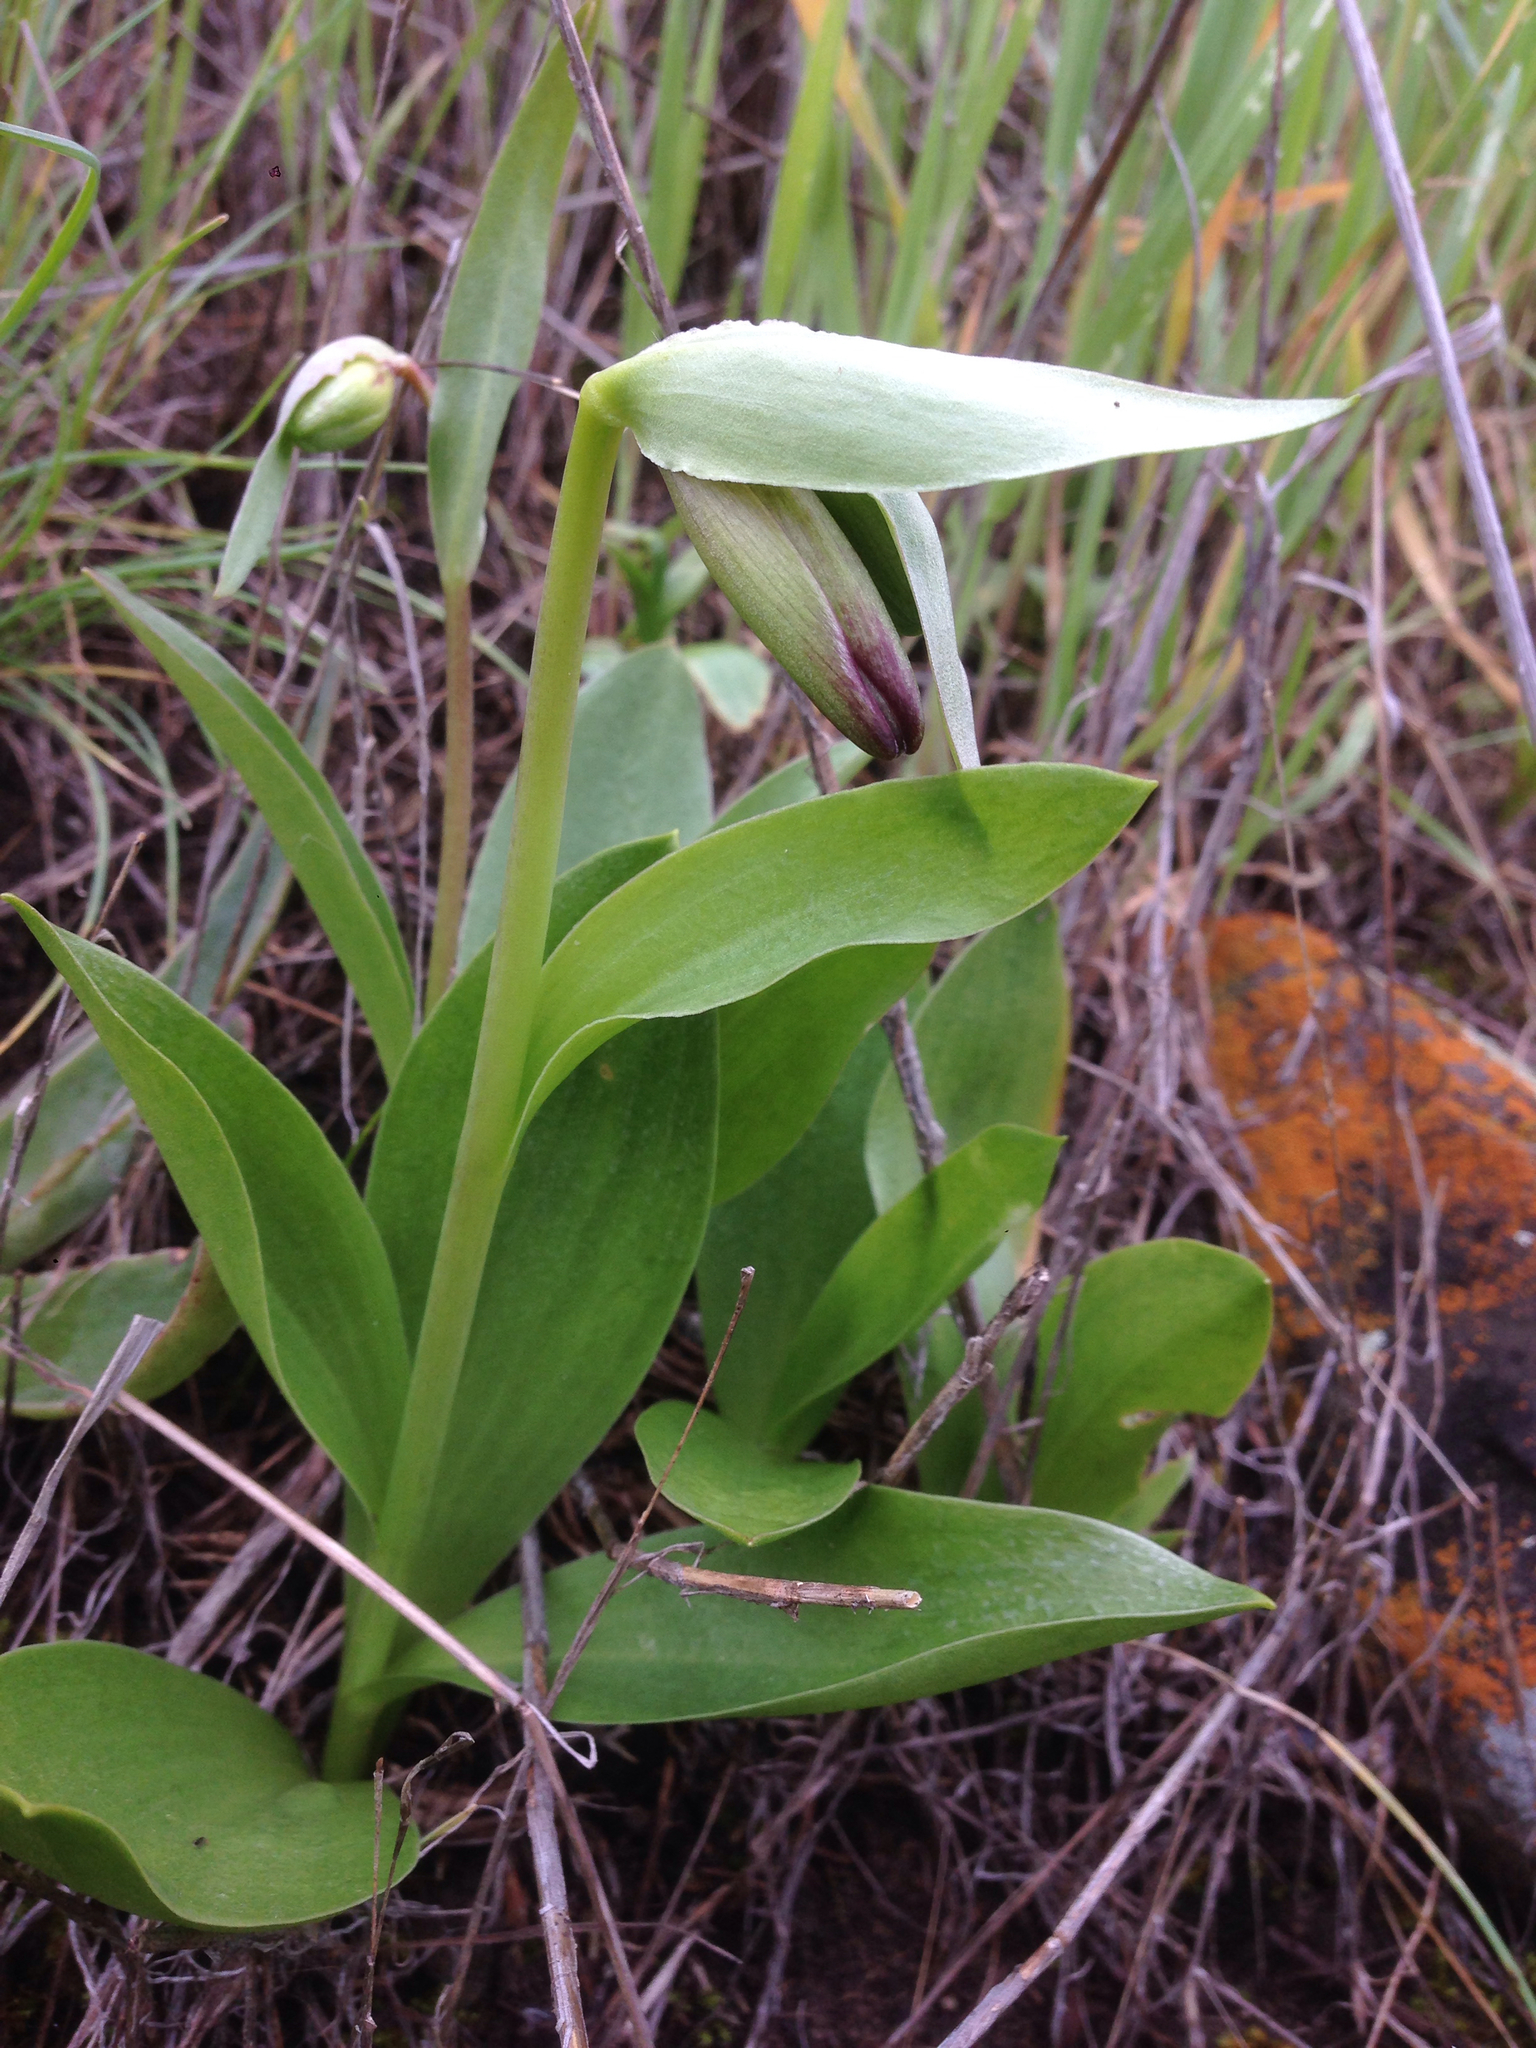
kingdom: Plantae
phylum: Tracheophyta
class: Liliopsida
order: Liliales
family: Liliaceae
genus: Fritillaria
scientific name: Fritillaria biflora
